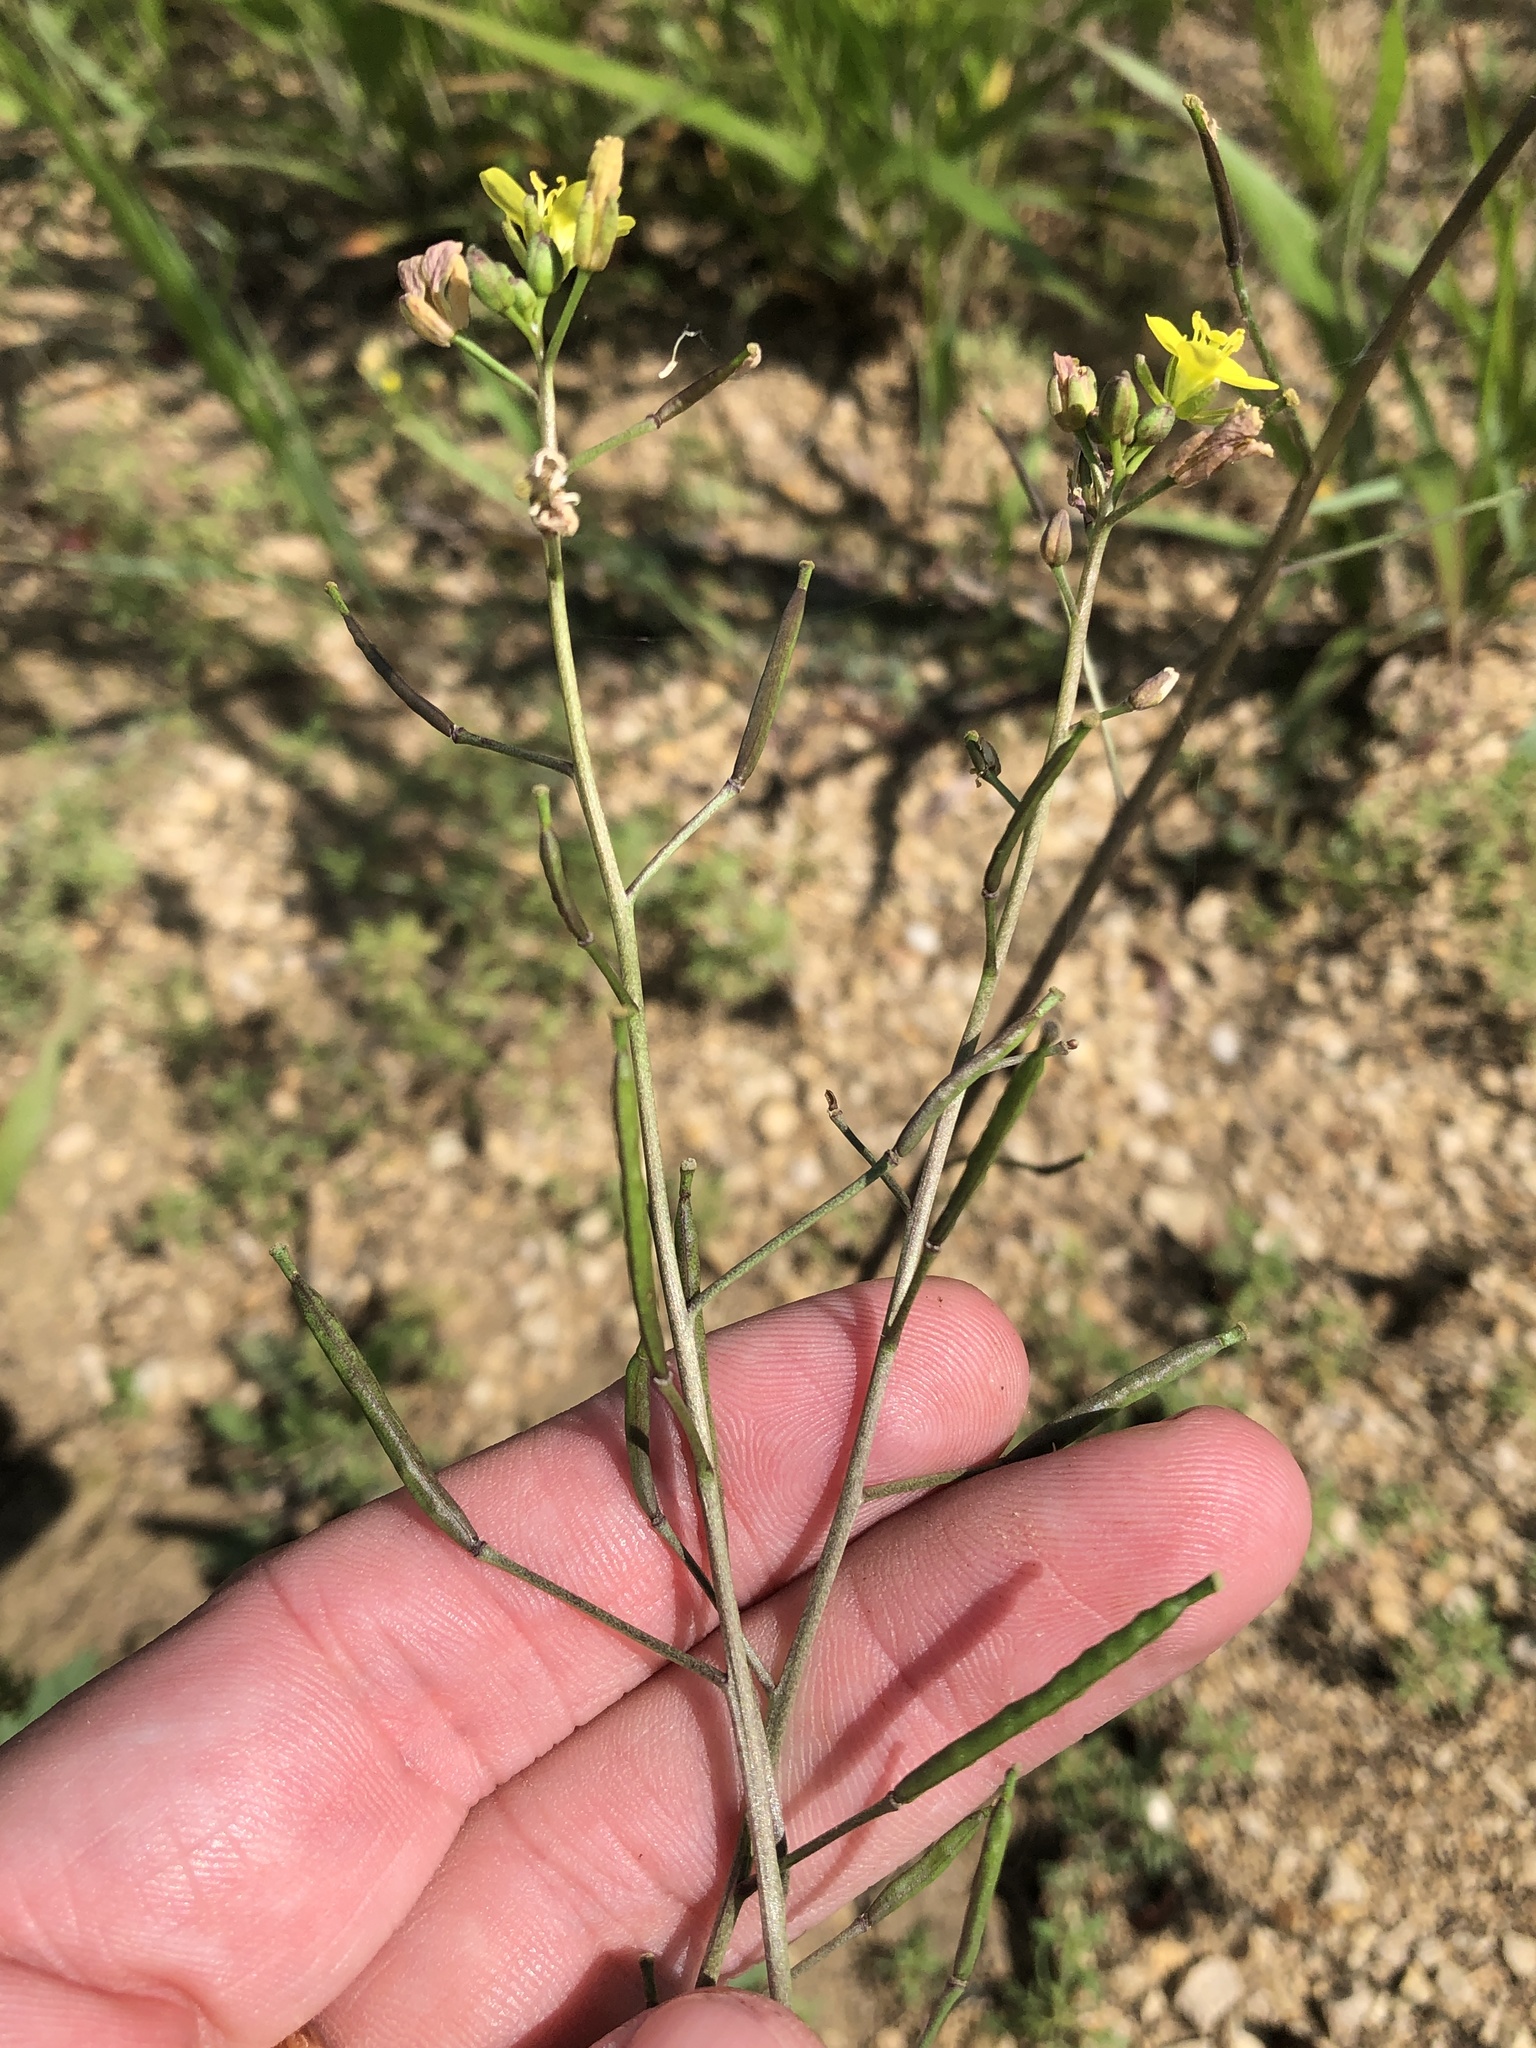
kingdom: Plantae
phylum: Tracheophyta
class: Magnoliopsida
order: Brassicales
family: Brassicaceae
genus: Diplotaxis
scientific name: Diplotaxis muralis
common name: Annual wall-rocket
